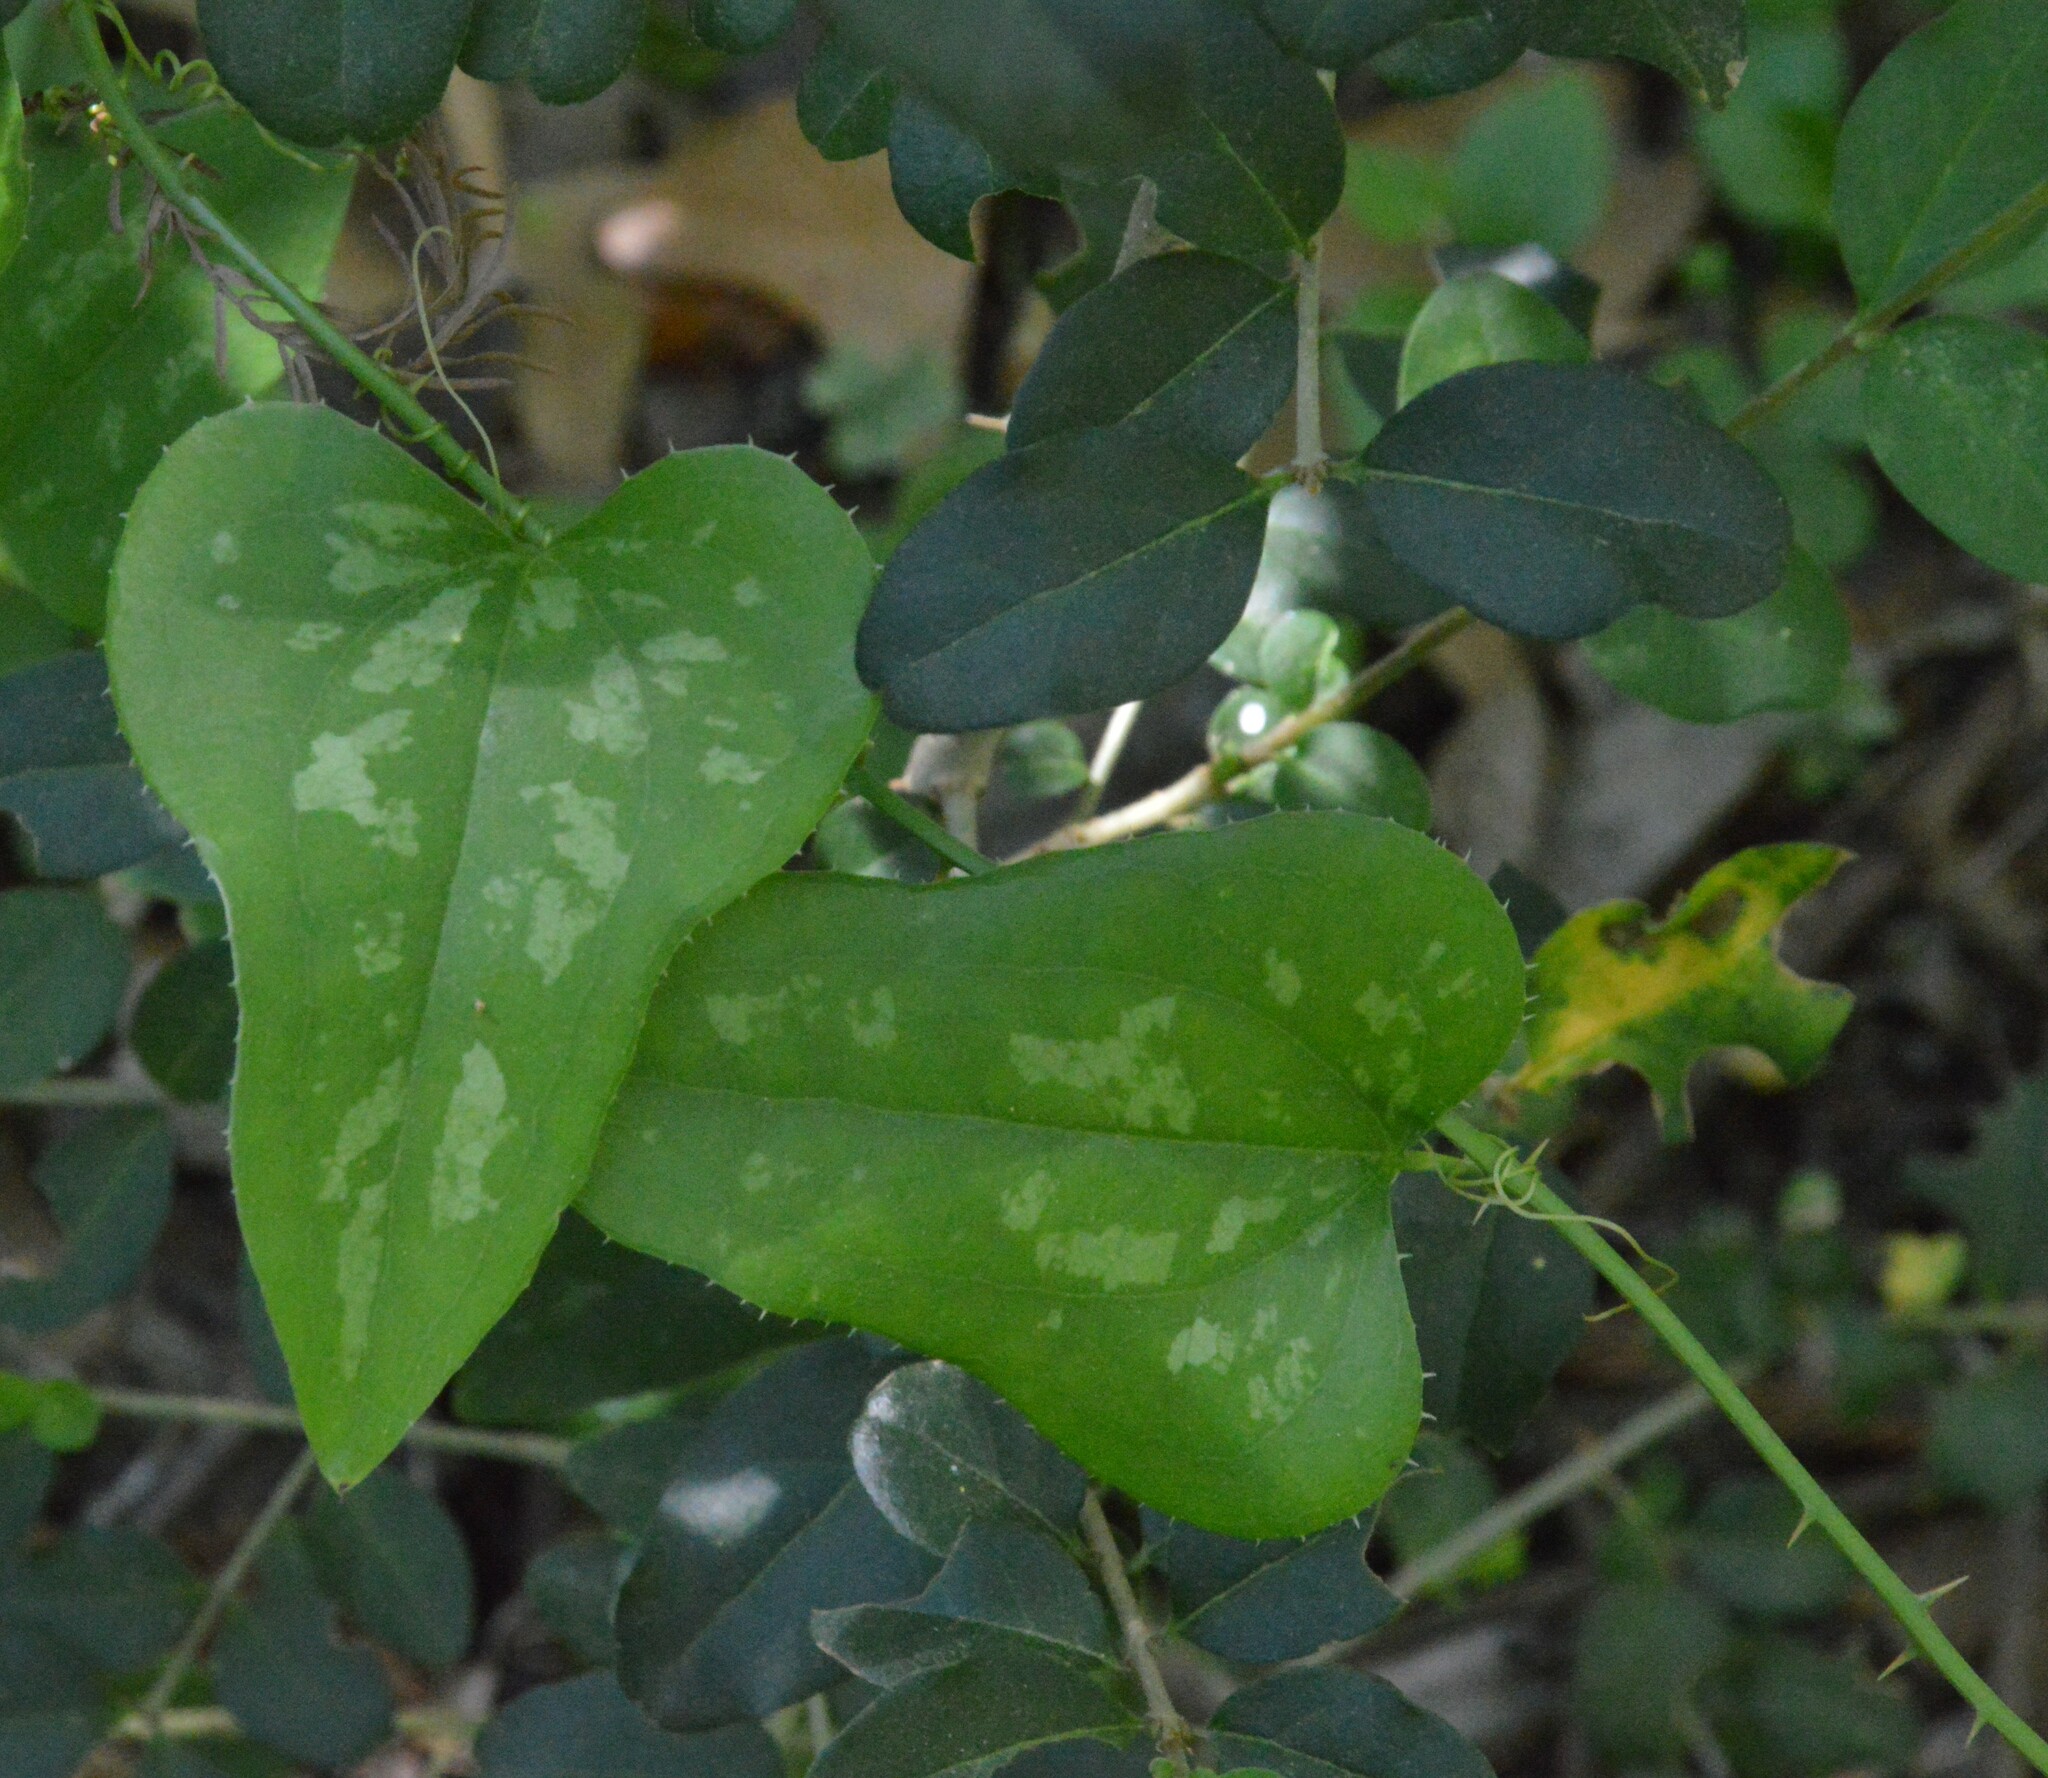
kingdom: Plantae
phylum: Tracheophyta
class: Liliopsida
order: Liliales
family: Smilacaceae
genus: Smilax
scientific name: Smilax bona-nox
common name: Catbrier
